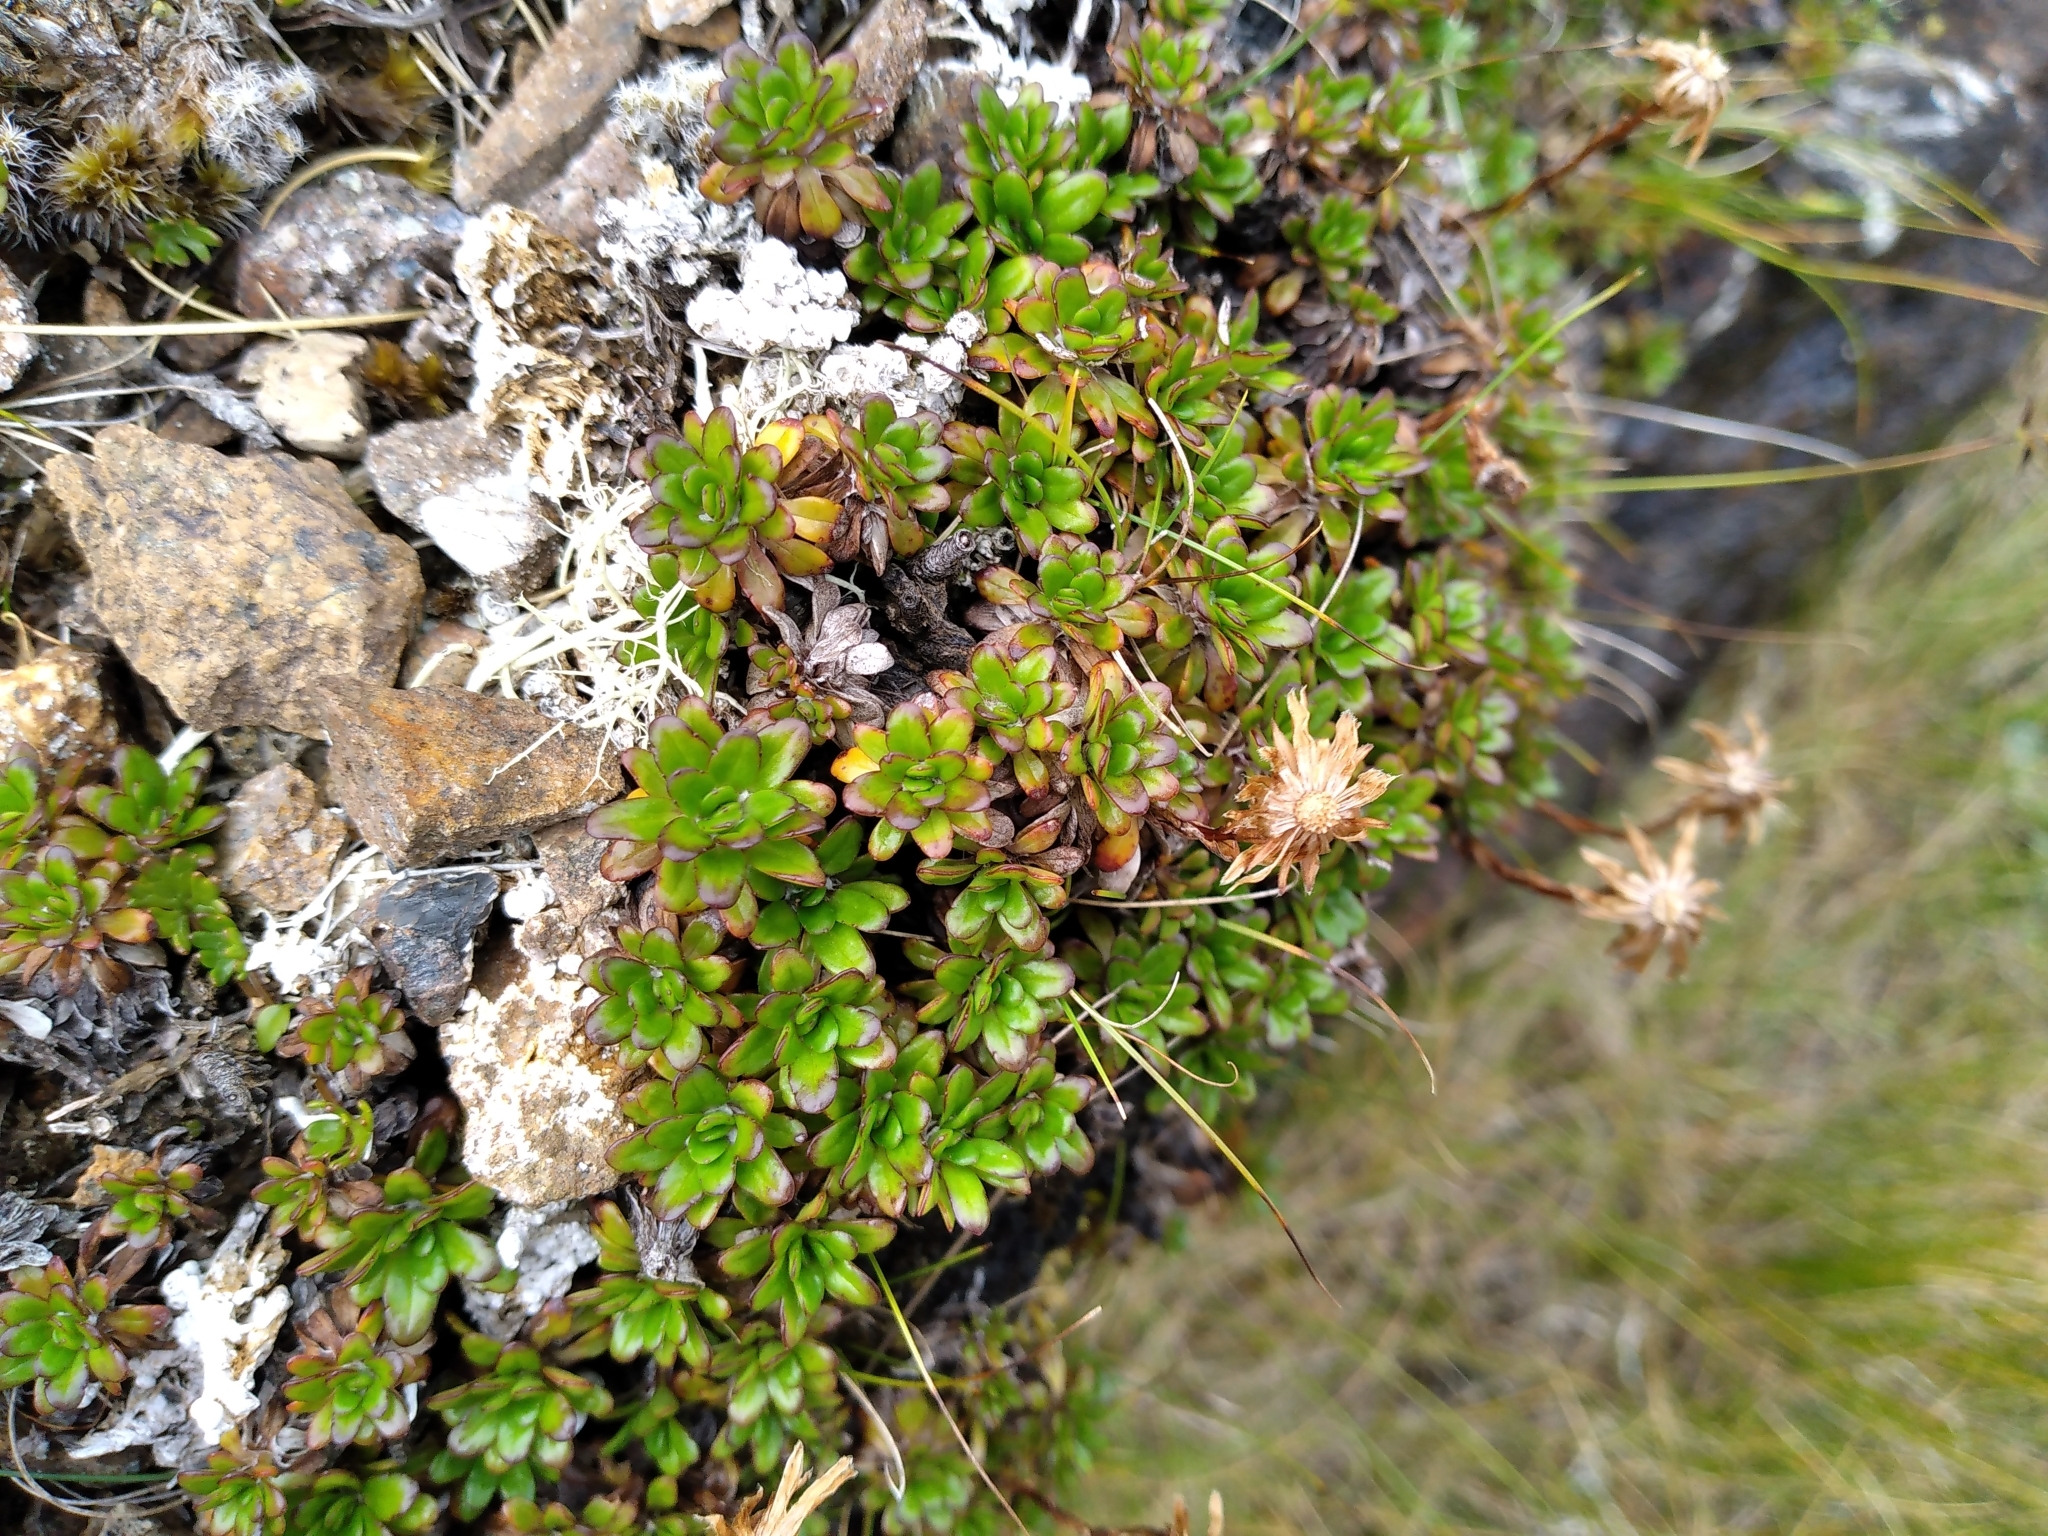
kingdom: Plantae
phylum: Tracheophyta
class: Magnoliopsida
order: Asterales
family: Asteraceae
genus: Celmisia
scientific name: Celmisia bellidioides
